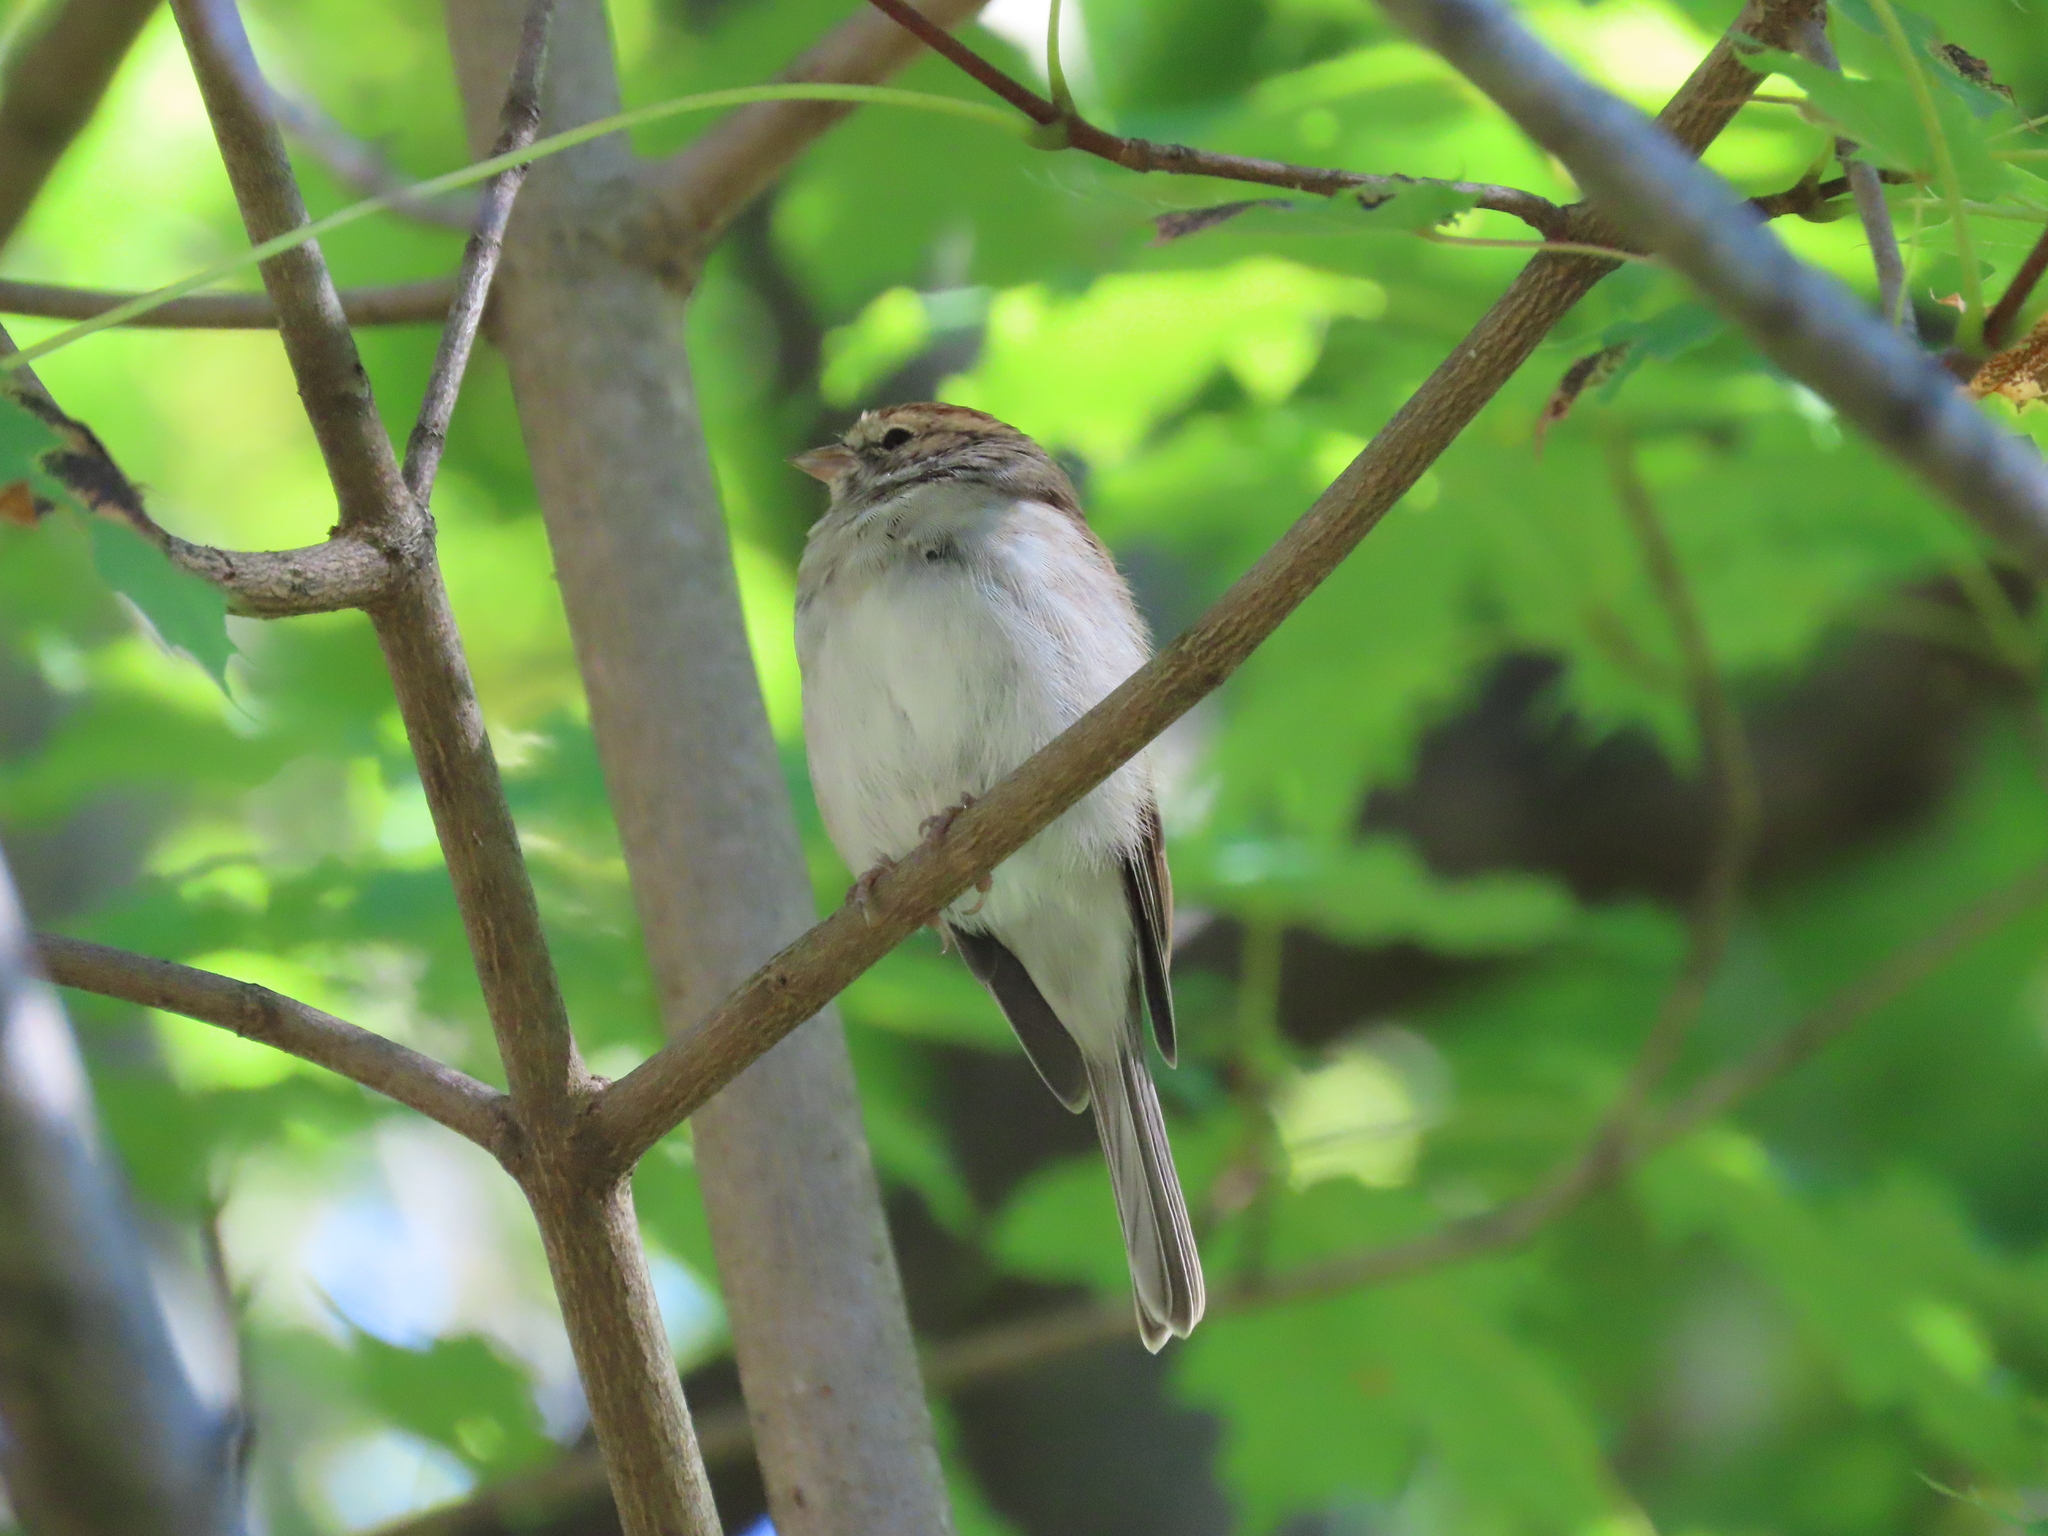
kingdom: Animalia
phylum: Chordata
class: Aves
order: Passeriformes
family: Passerellidae
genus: Spizella
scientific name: Spizella passerina
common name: Chipping sparrow
